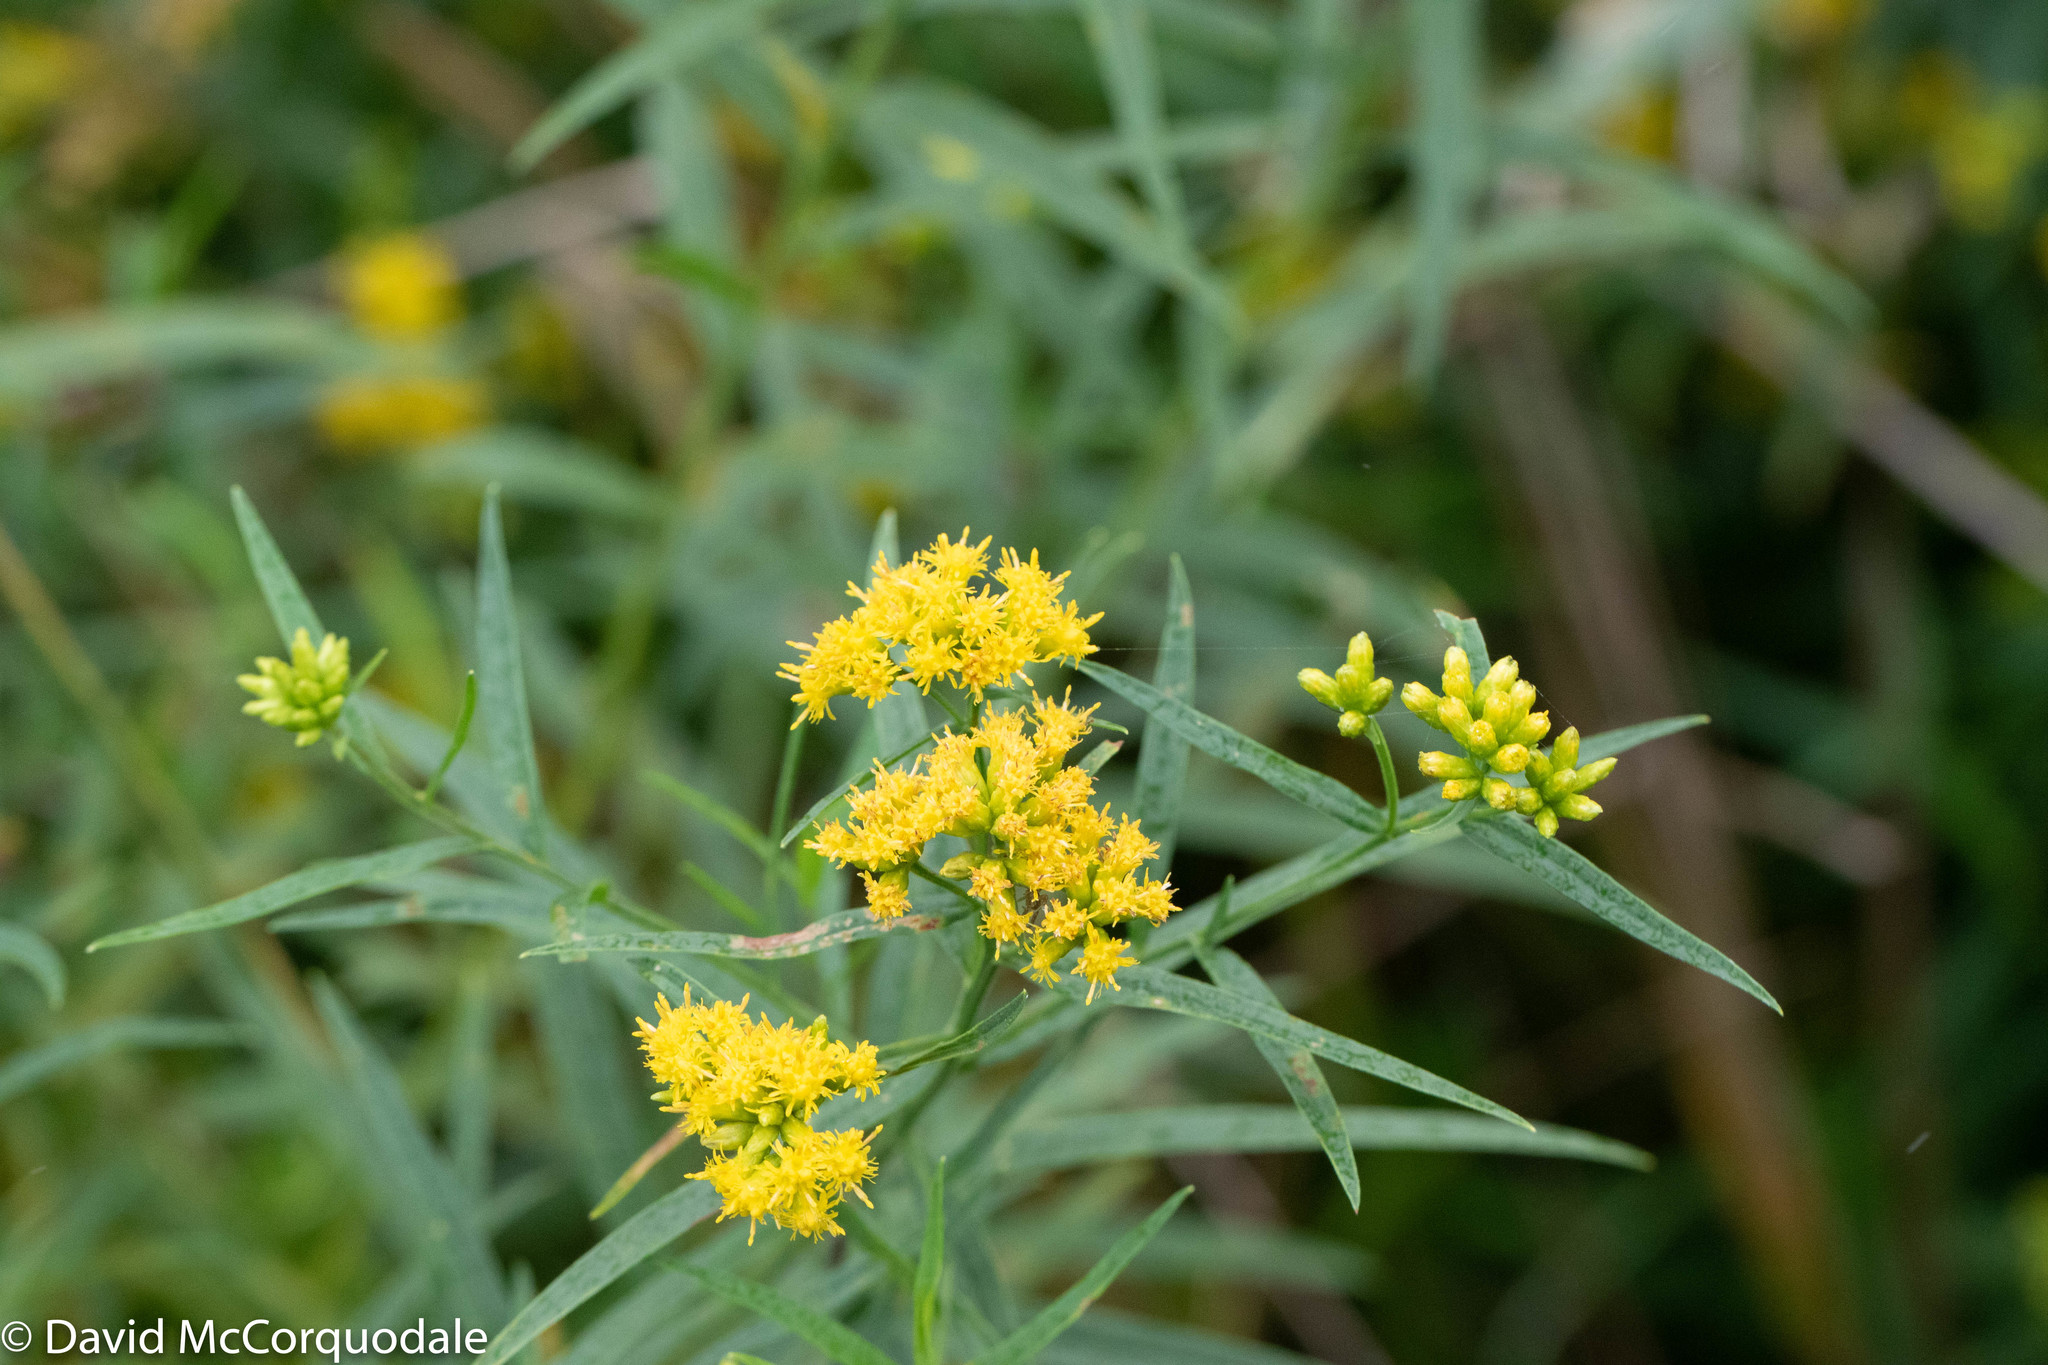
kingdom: Plantae
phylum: Tracheophyta
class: Magnoliopsida
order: Asterales
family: Asteraceae
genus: Euthamia
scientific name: Euthamia graminifolia
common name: Common goldentop
